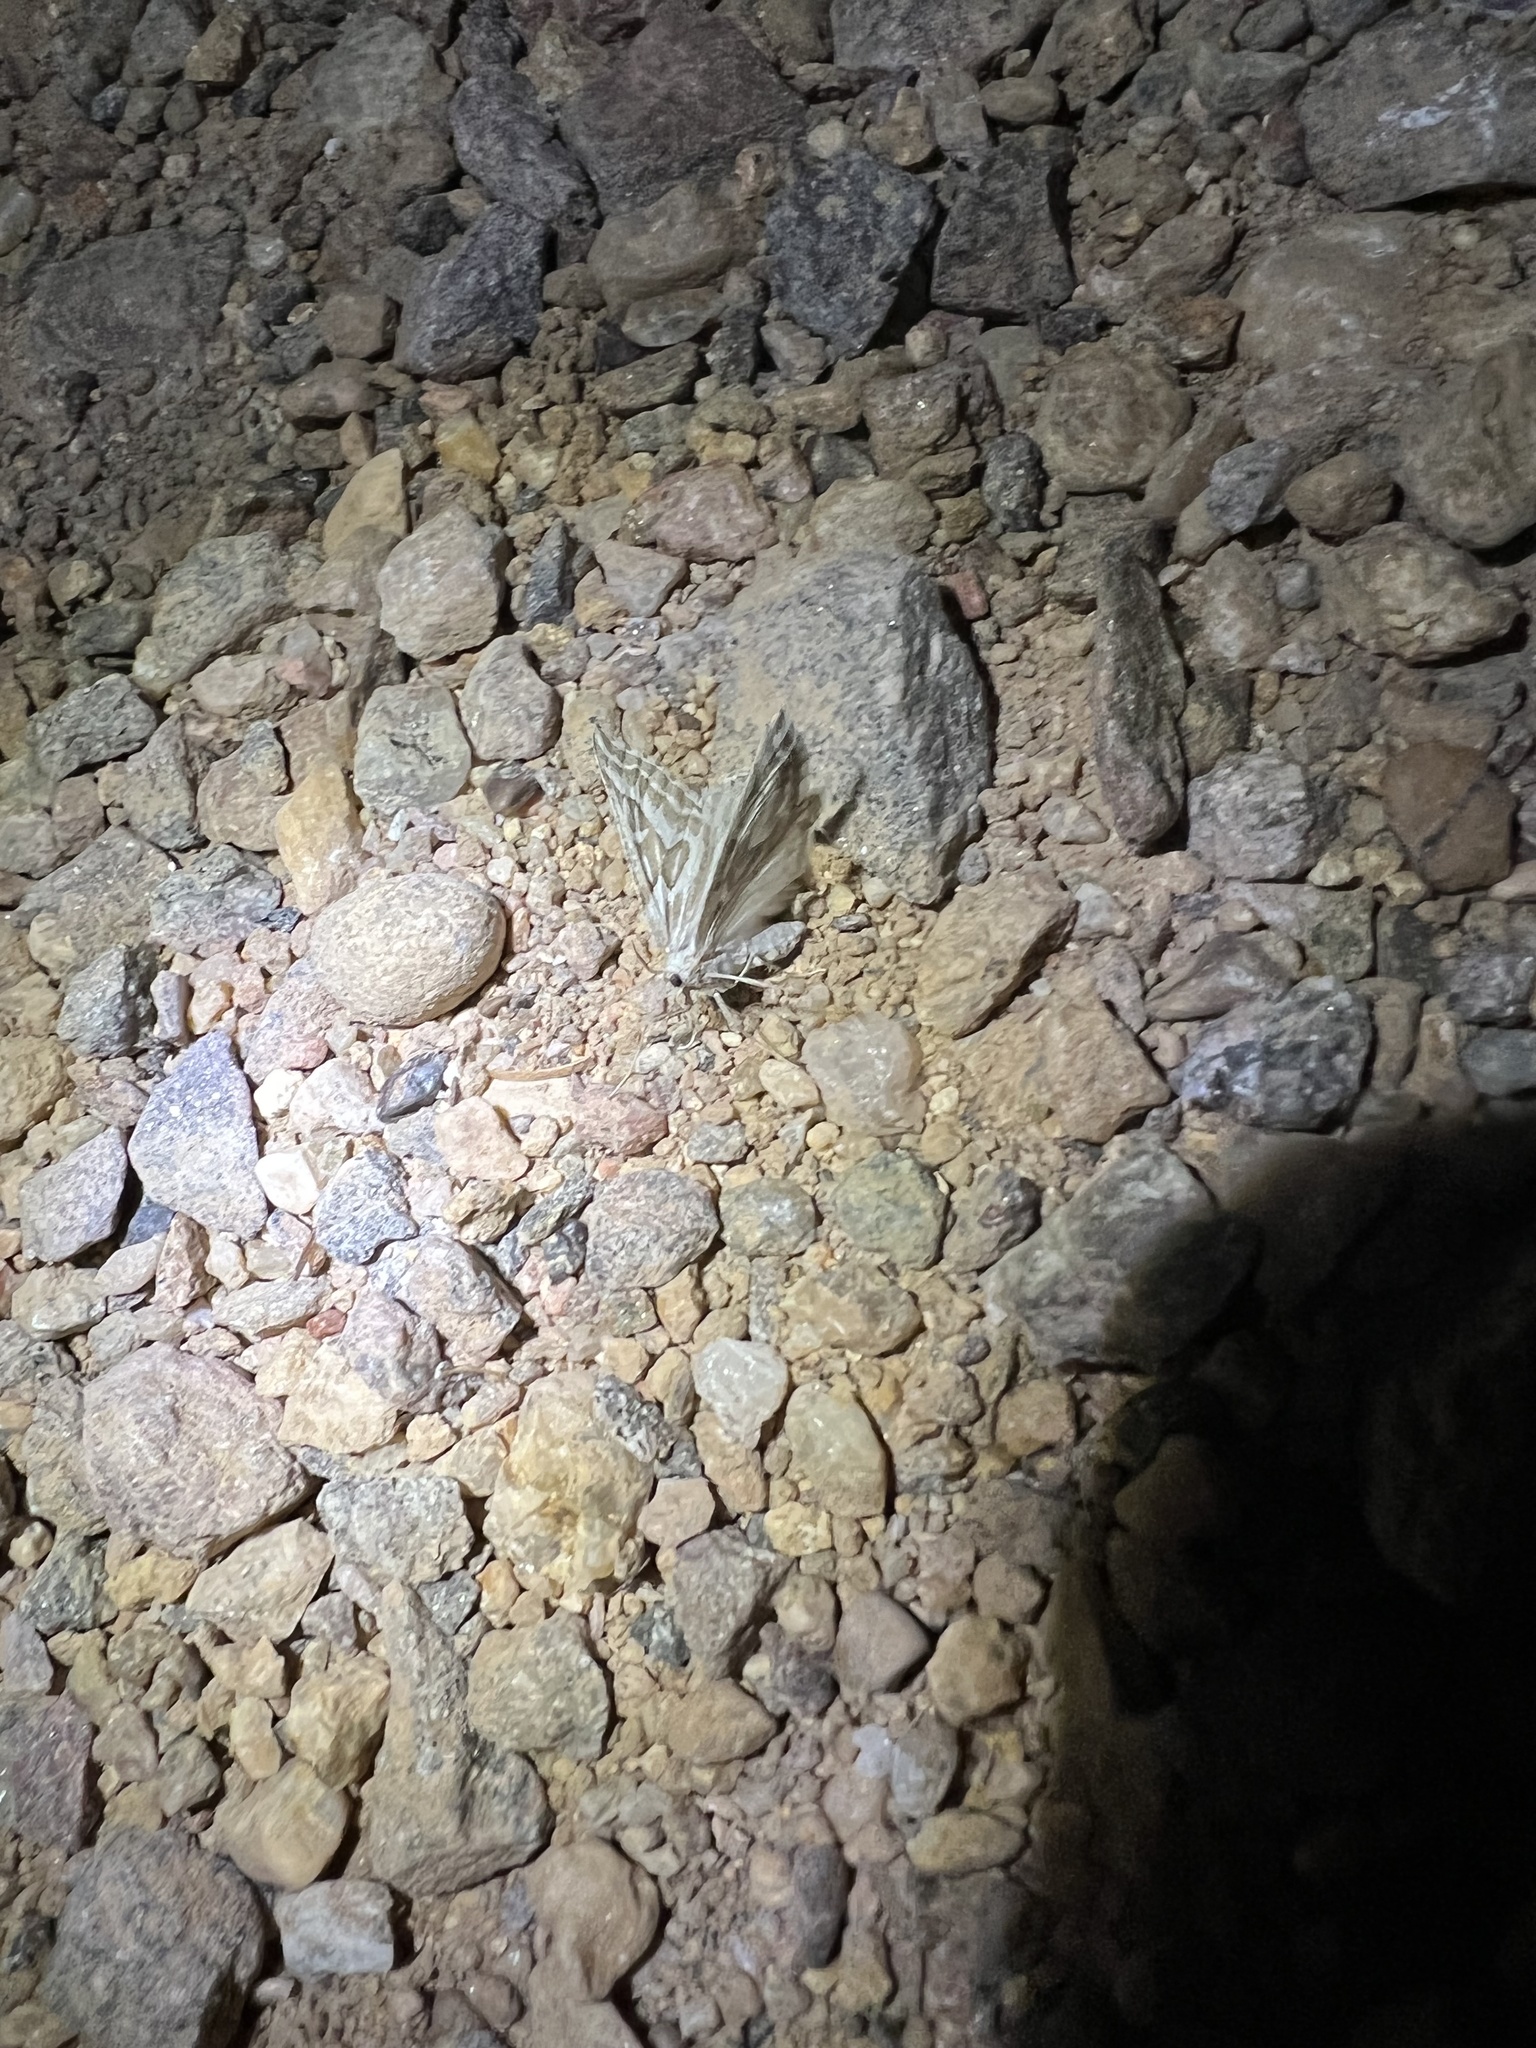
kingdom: Animalia
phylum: Arthropoda
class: Insecta
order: Lepidoptera
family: Geometridae
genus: Plataea
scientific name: Plataea trilinearia
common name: Sagebrush girdle moth
